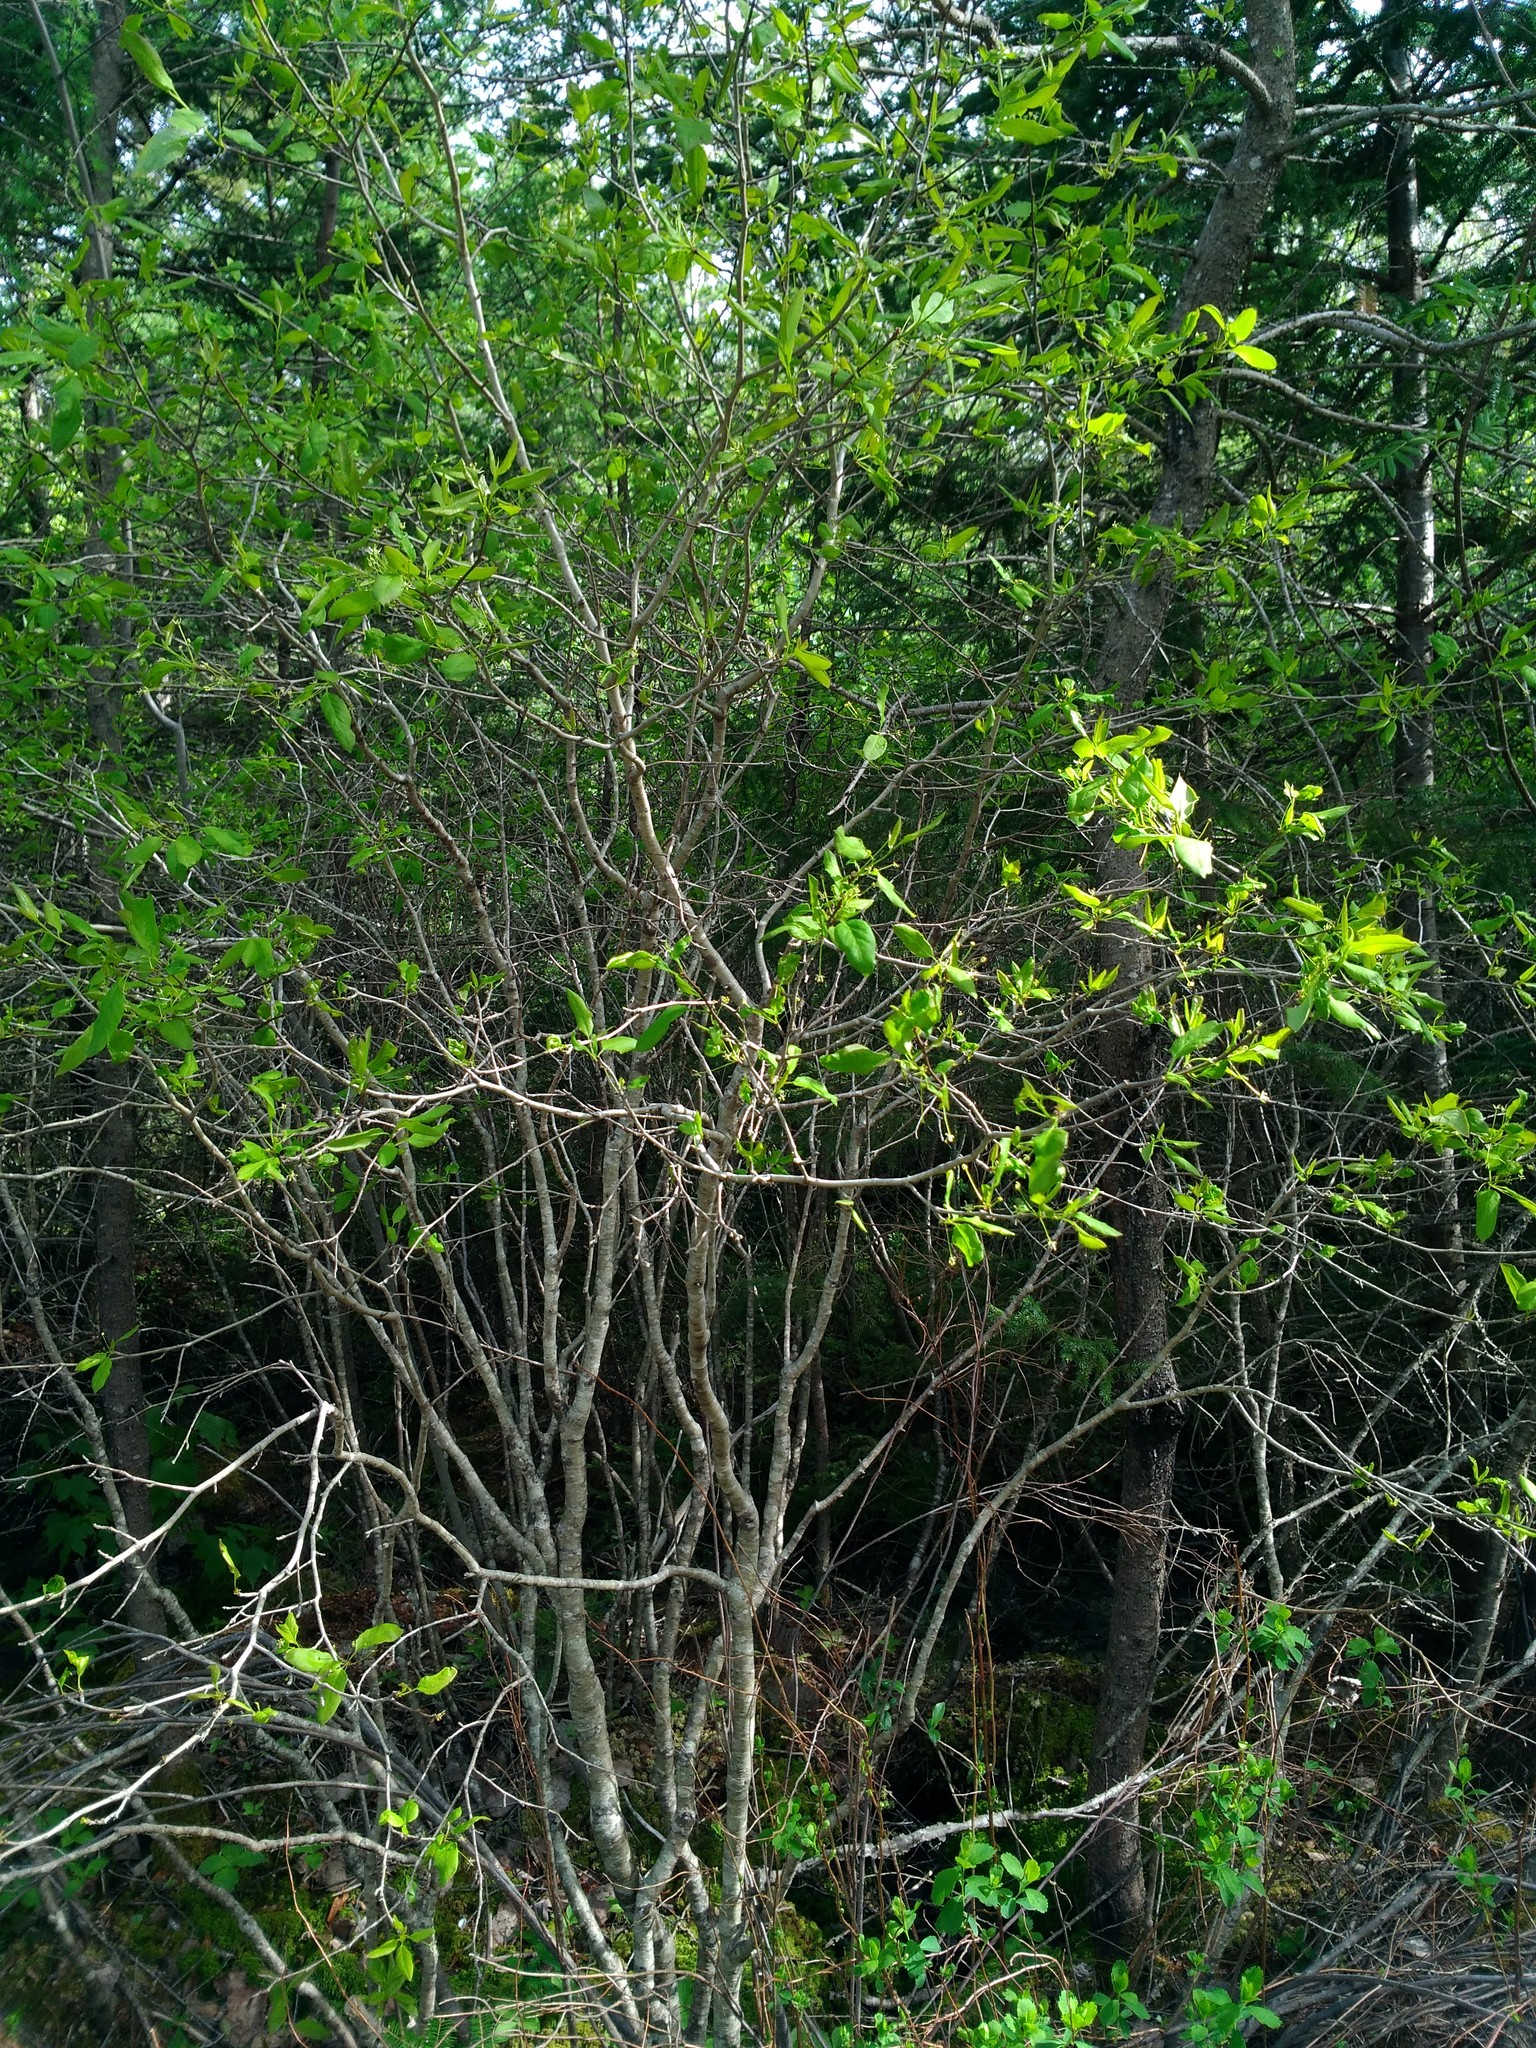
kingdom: Plantae
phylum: Tracheophyta
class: Magnoliopsida
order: Aquifoliales
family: Aquifoliaceae
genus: Ilex
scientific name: Ilex mucronata
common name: Catberry
